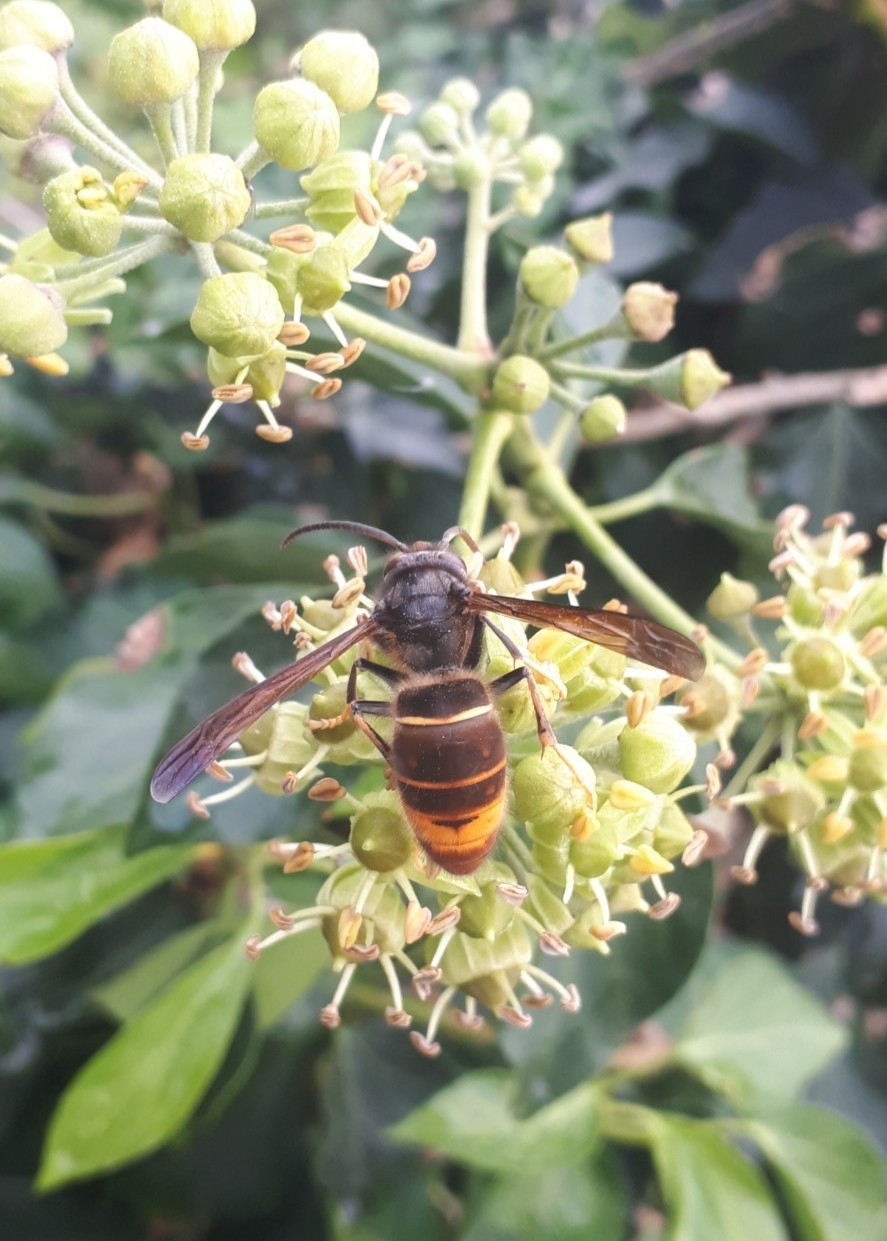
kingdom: Animalia
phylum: Arthropoda
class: Insecta
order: Hymenoptera
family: Vespidae
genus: Vespa
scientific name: Vespa velutina
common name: Asian hornet
